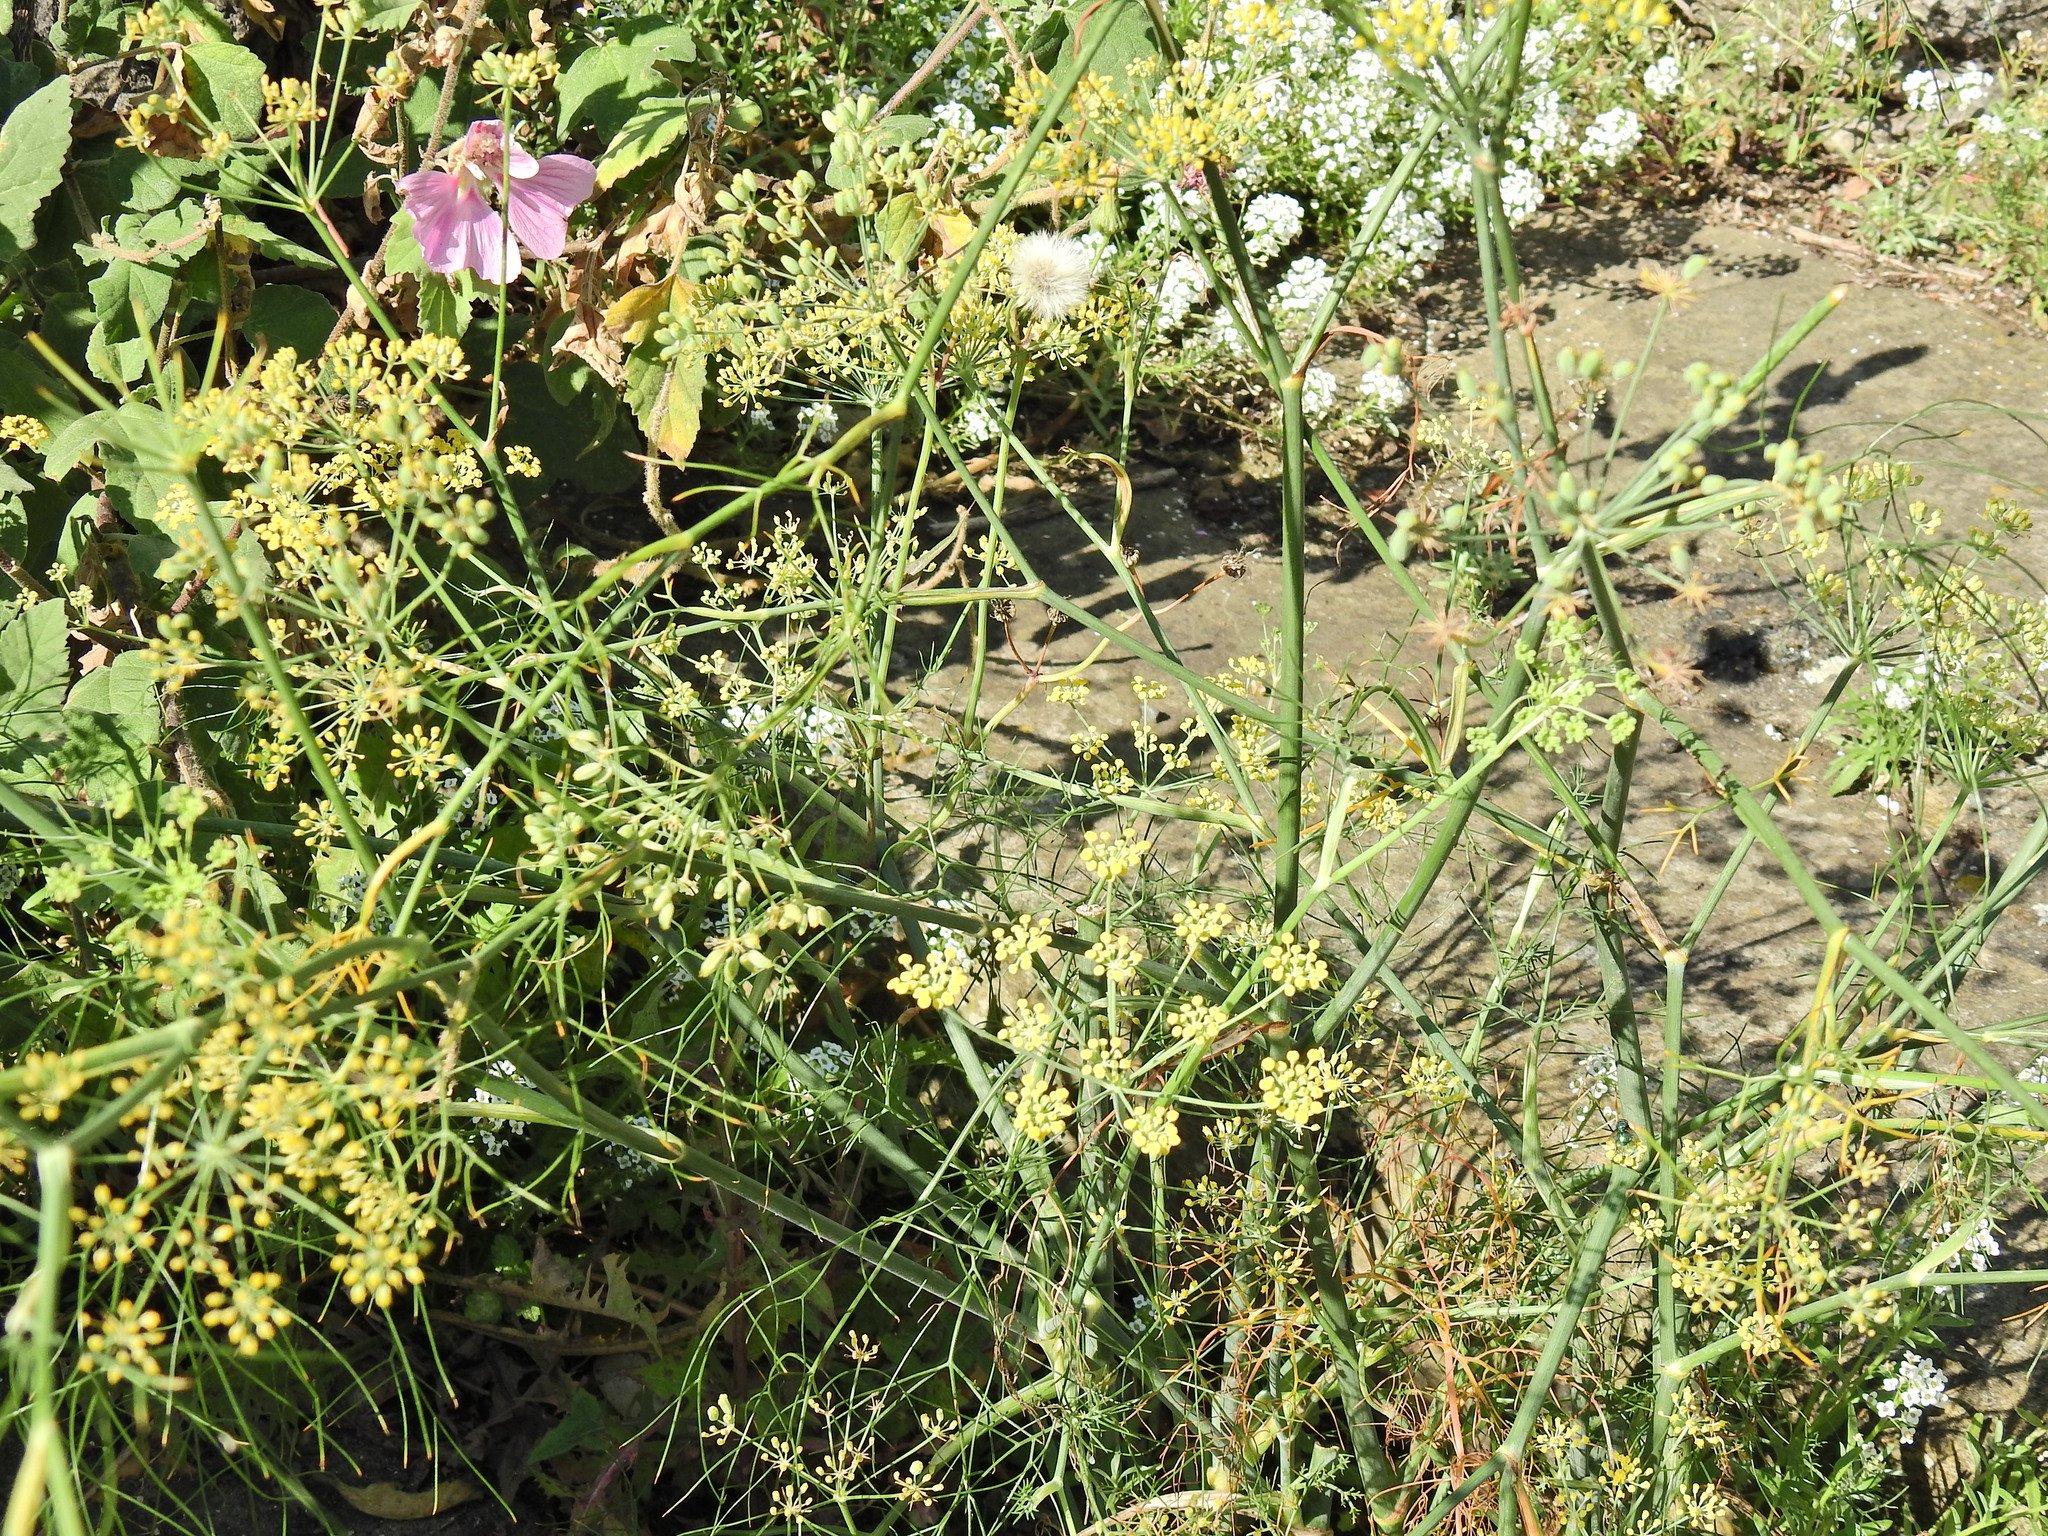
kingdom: Plantae
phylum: Tracheophyta
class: Magnoliopsida
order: Apiales
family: Apiaceae
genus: Foeniculum
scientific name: Foeniculum vulgare
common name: Fennel
